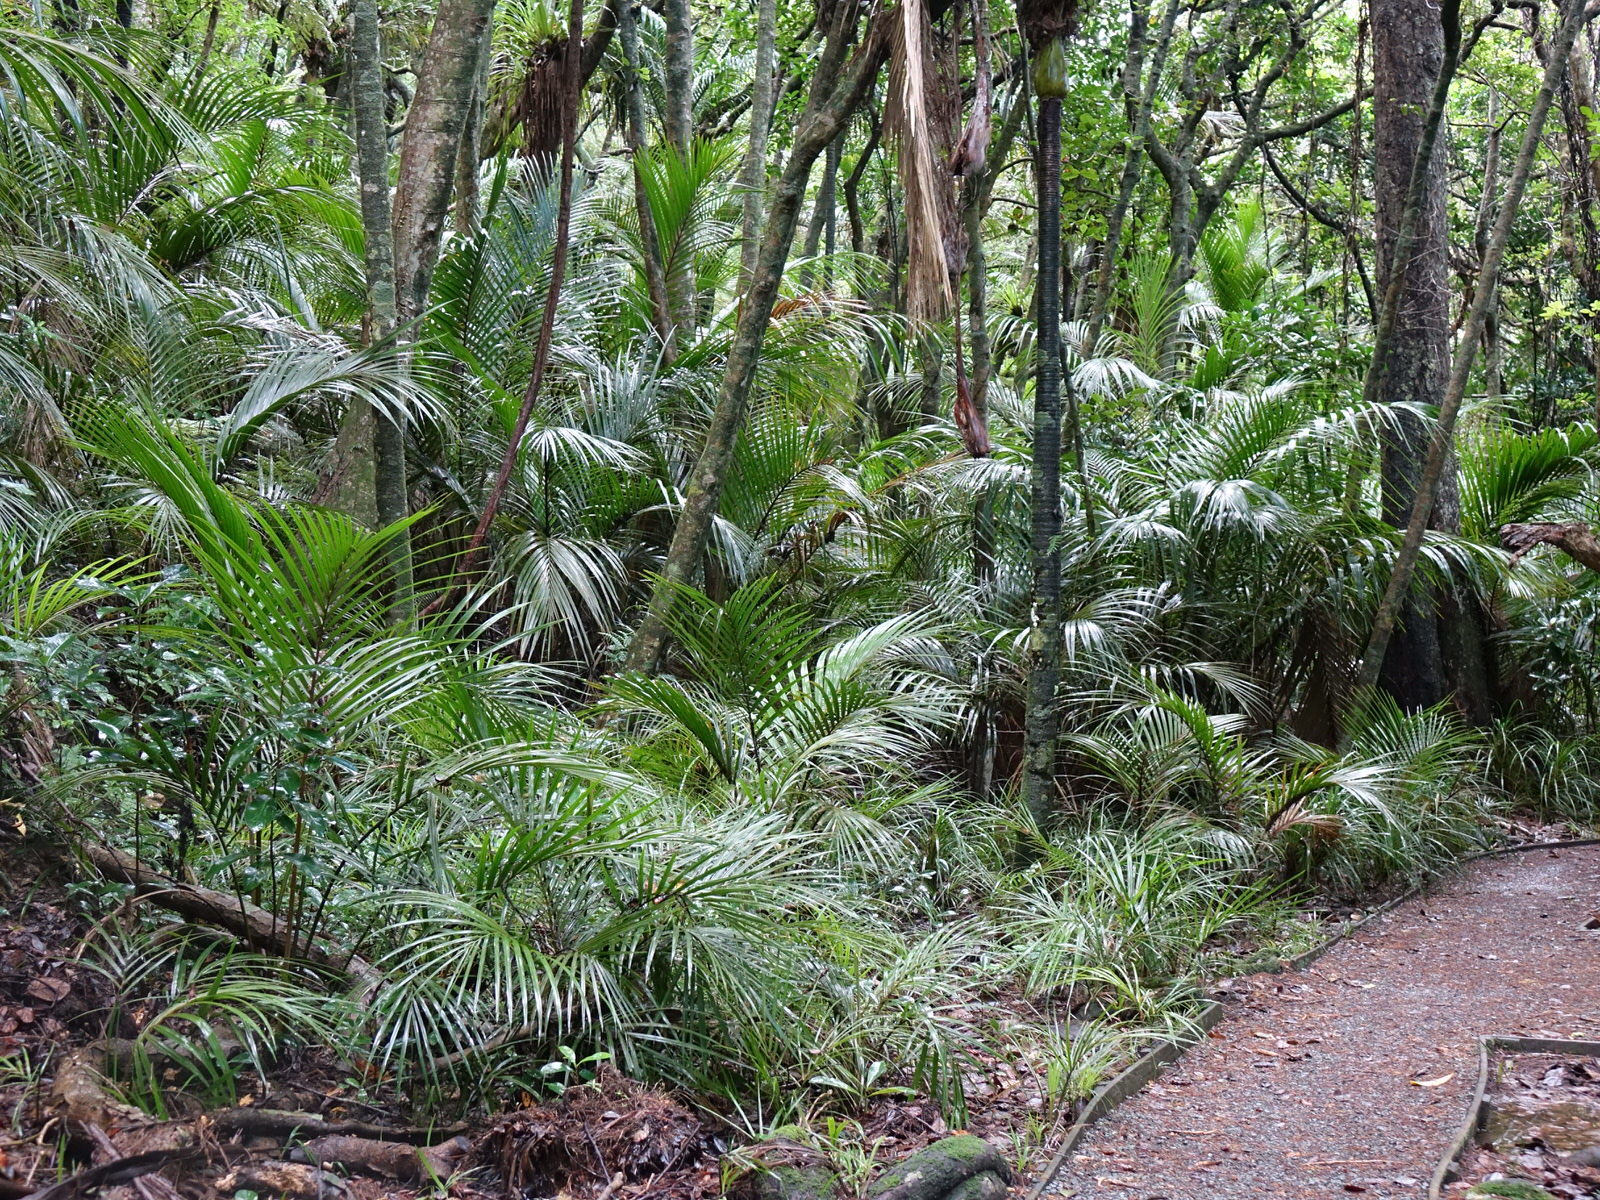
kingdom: Plantae
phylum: Tracheophyta
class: Liliopsida
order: Arecales
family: Arecaceae
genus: Rhopalostylis
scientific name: Rhopalostylis sapida
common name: Feather-duster palm
